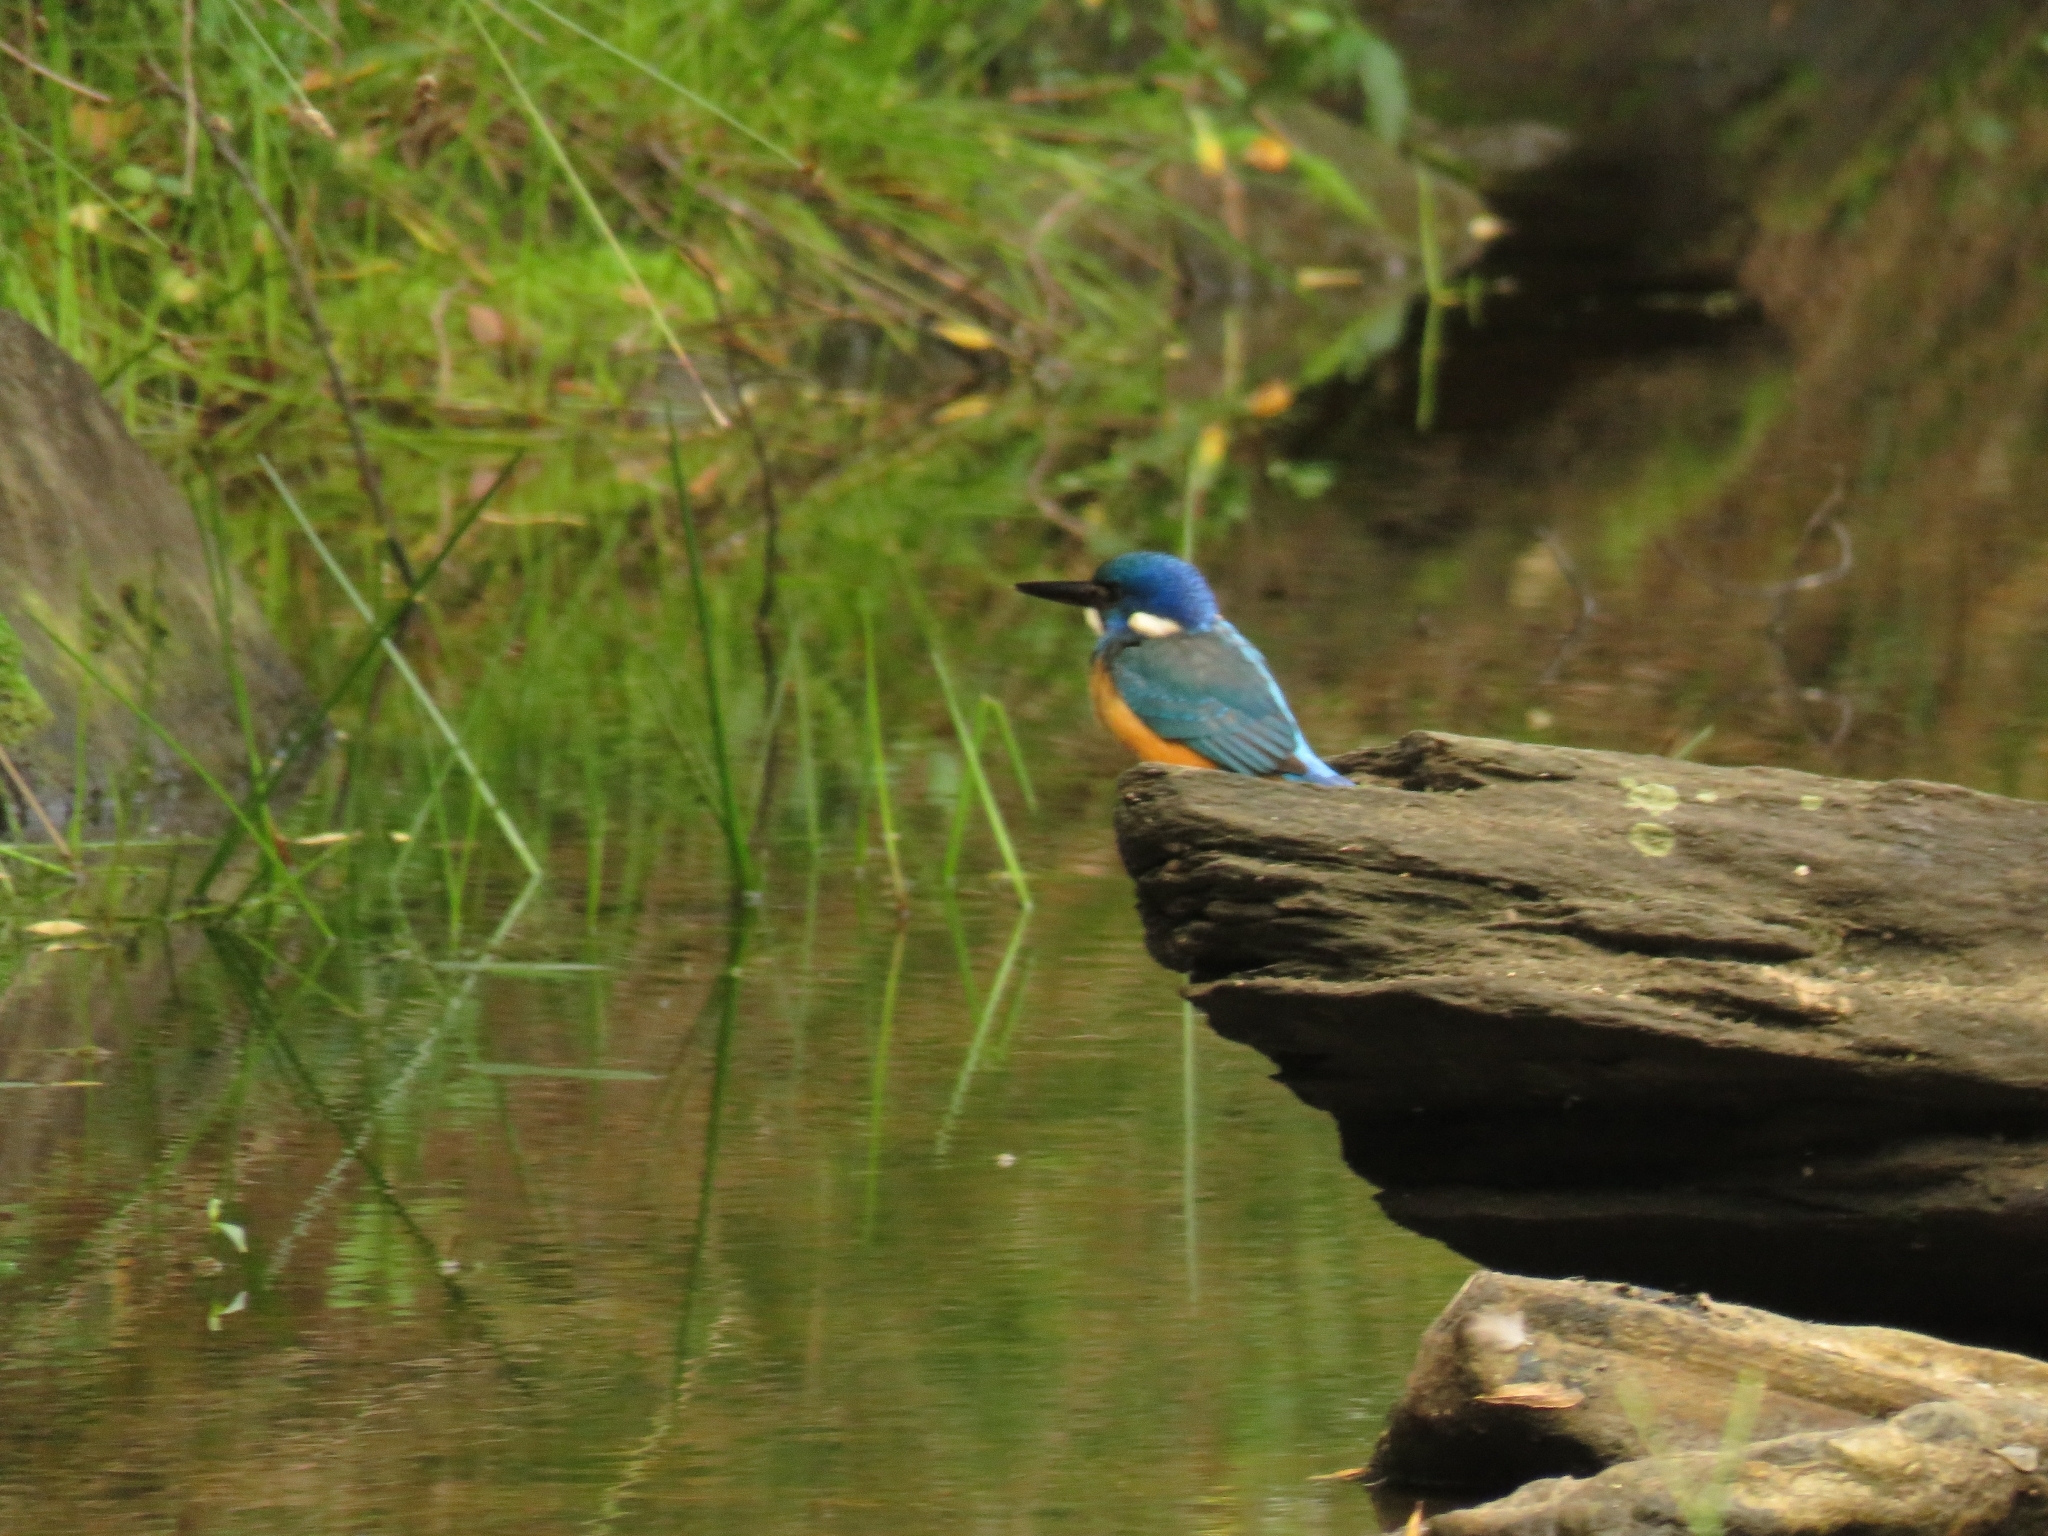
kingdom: Animalia
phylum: Chordata
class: Aves
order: Coraciiformes
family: Alcedinidae
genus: Alcedo
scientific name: Alcedo semitorquata
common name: Half-collared kingfisher
